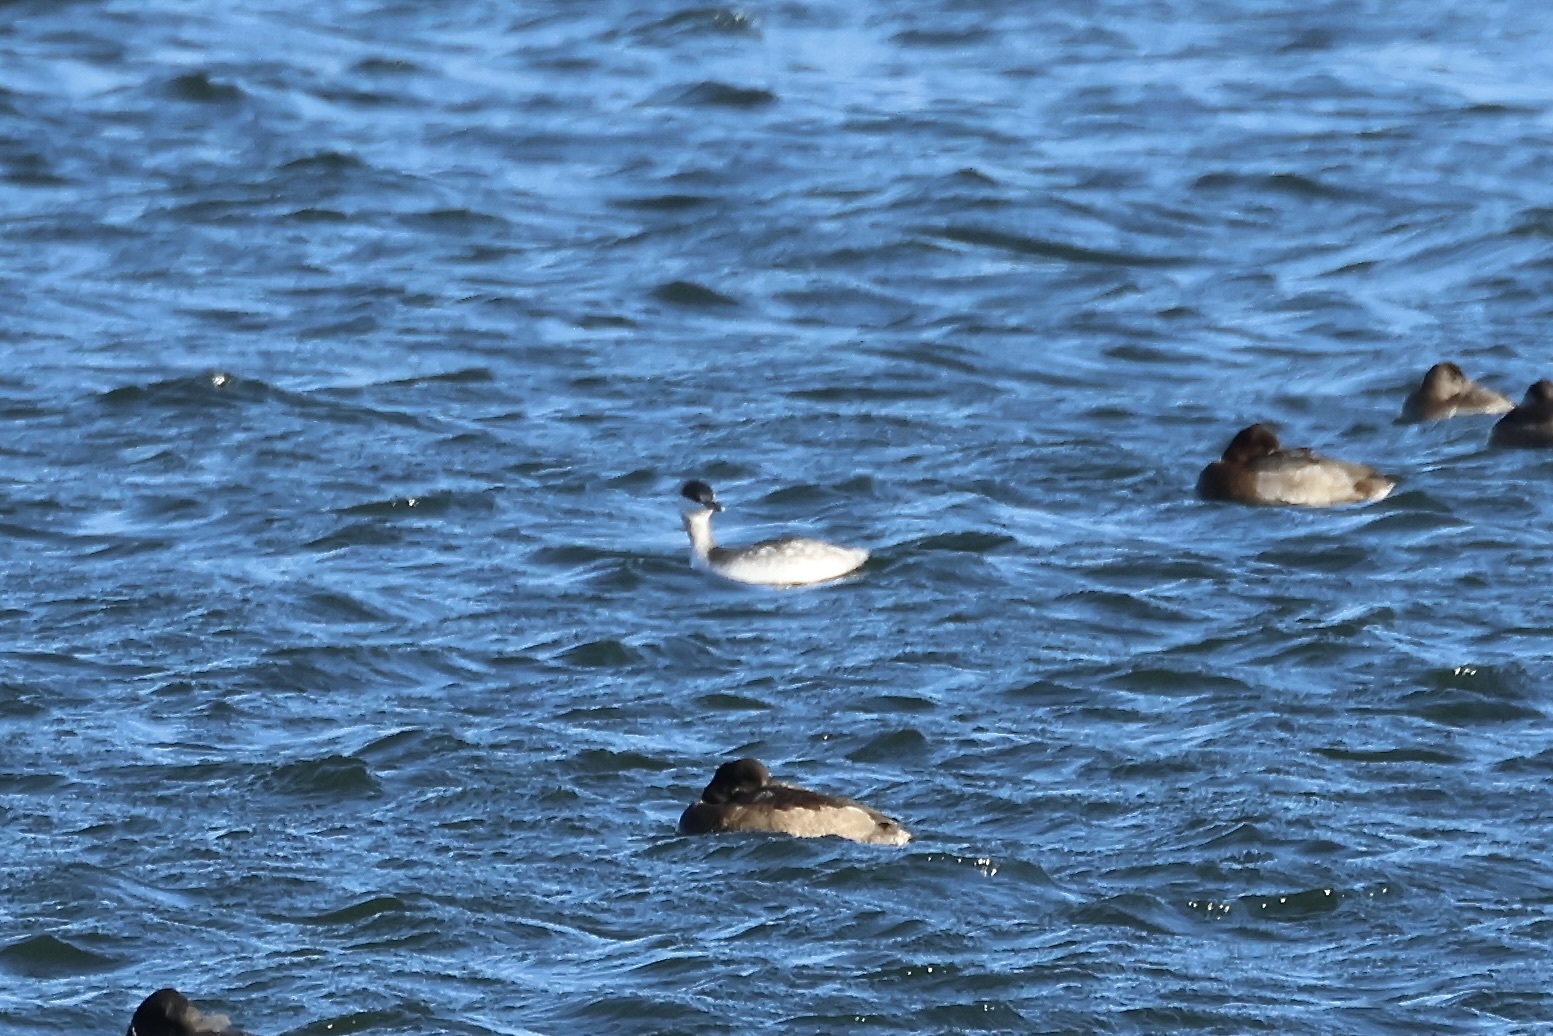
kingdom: Animalia
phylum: Chordata
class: Aves
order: Podicipediformes
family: Podicipedidae
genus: Podiceps
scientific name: Podiceps auritus
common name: Horned grebe
